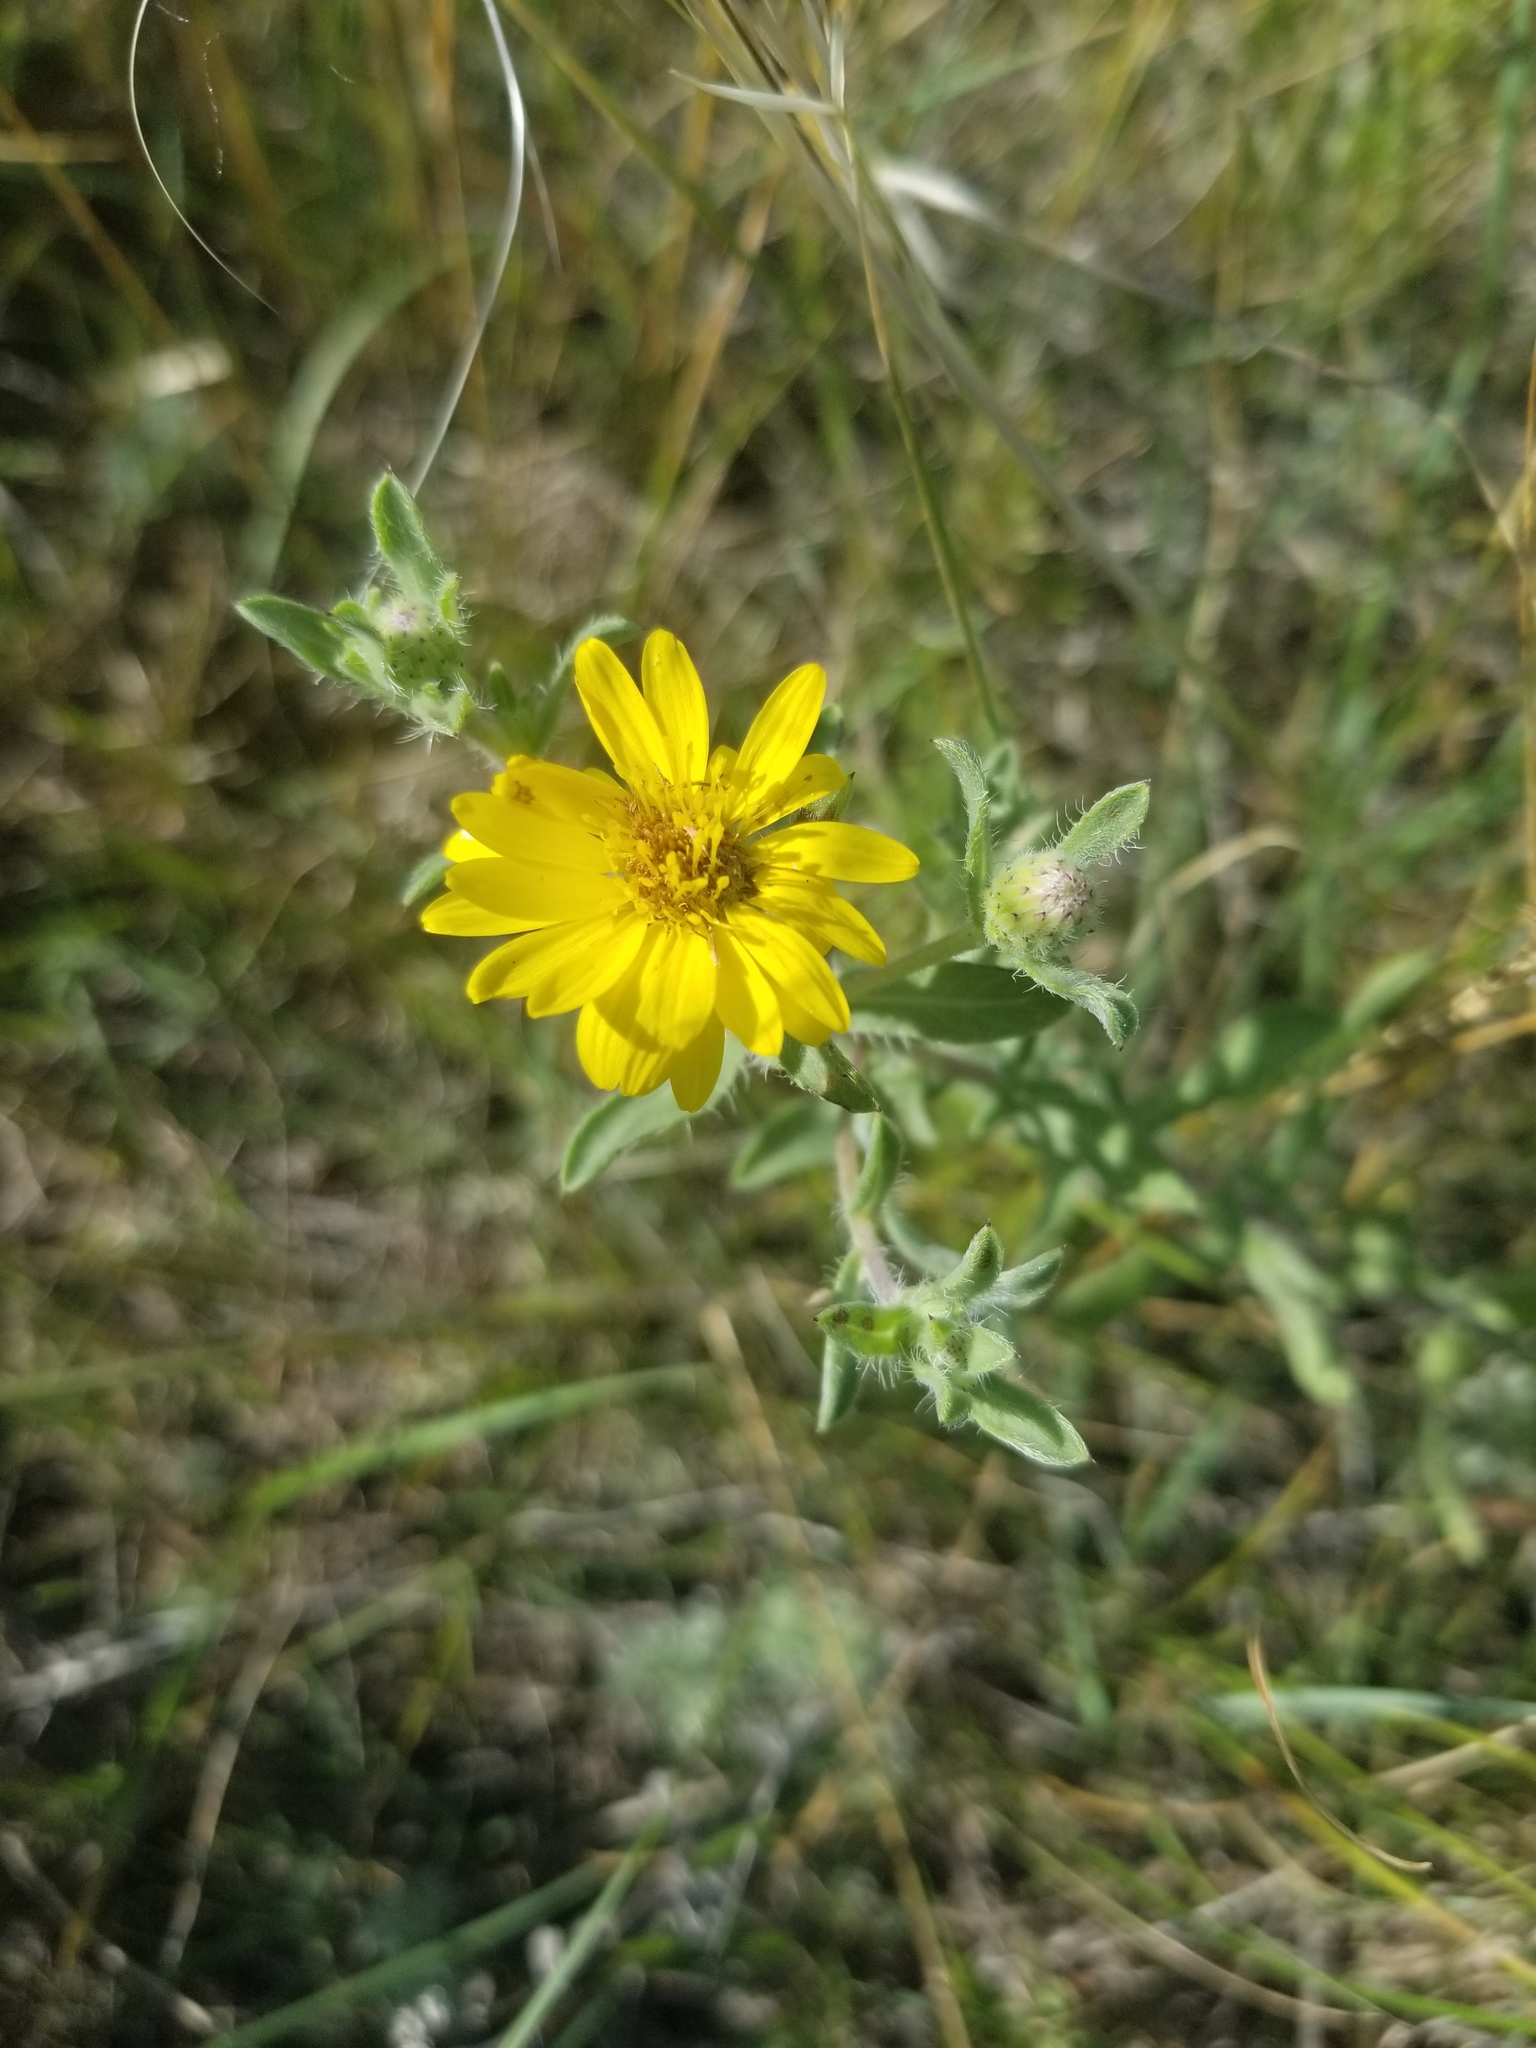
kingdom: Plantae
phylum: Tracheophyta
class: Magnoliopsida
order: Asterales
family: Asteraceae
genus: Heterotheca
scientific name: Heterotheca villosa
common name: Hairy false goldenaster
